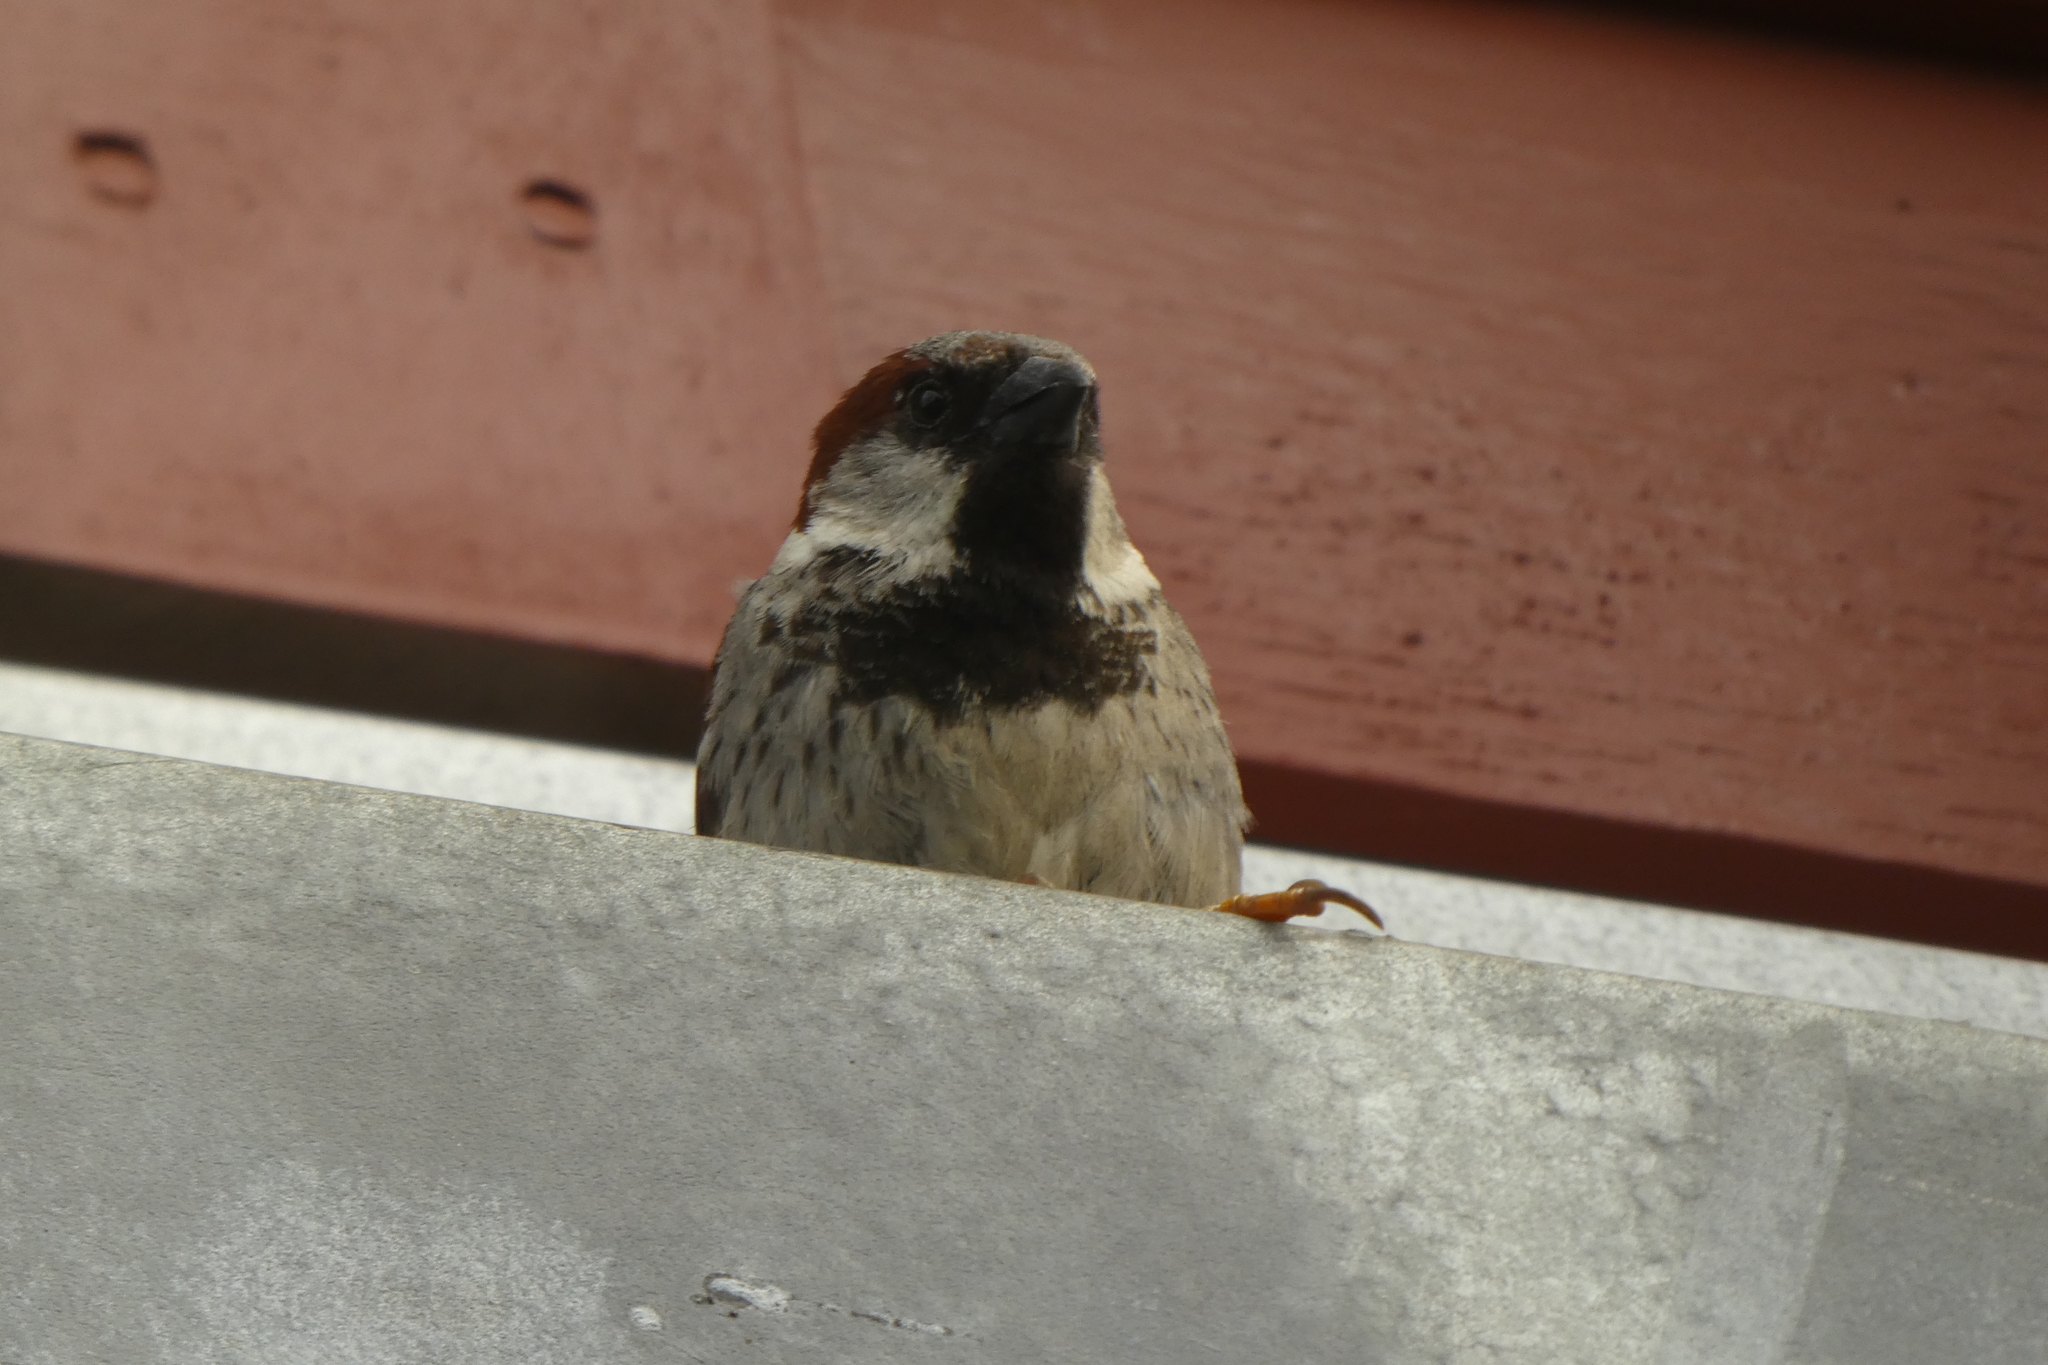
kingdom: Animalia
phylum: Chordata
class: Aves
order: Passeriformes
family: Passeridae
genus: Passer
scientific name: Passer domesticus
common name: House sparrow
